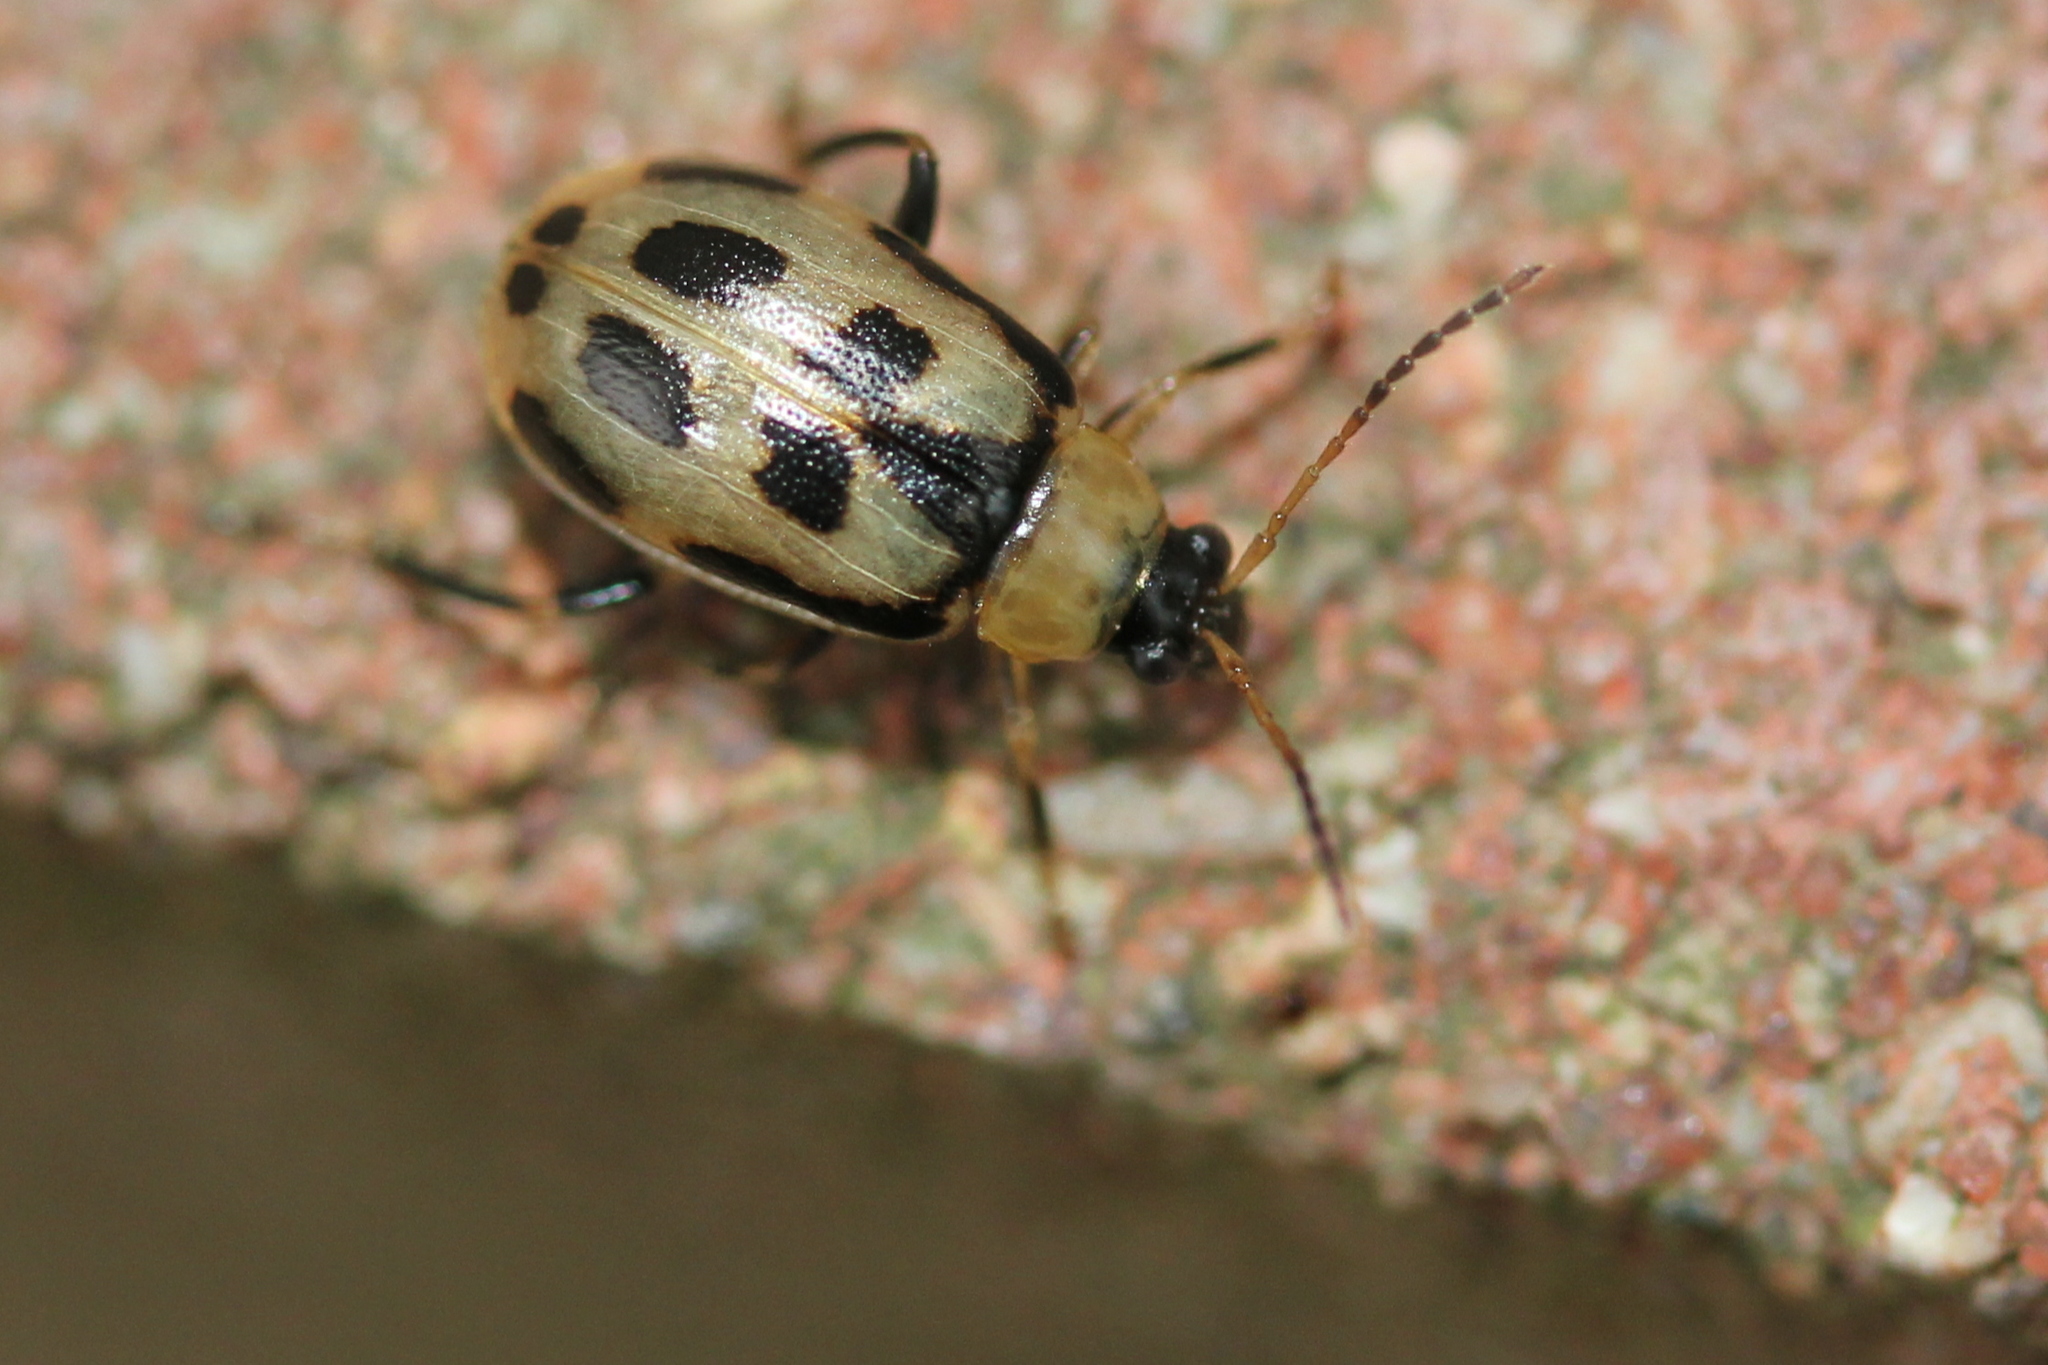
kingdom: Animalia
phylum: Arthropoda
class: Insecta
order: Coleoptera
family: Chrysomelidae
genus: Cerotoma
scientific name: Cerotoma trifurcata
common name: Bean leaf beetle
